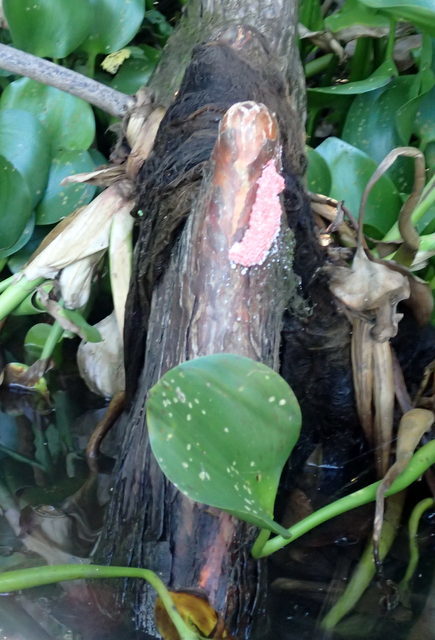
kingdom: Animalia
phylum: Mollusca
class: Gastropoda
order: Architaenioglossa
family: Ampullariidae
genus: Pomacea
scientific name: Pomacea maculata
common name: Giant applesnail
